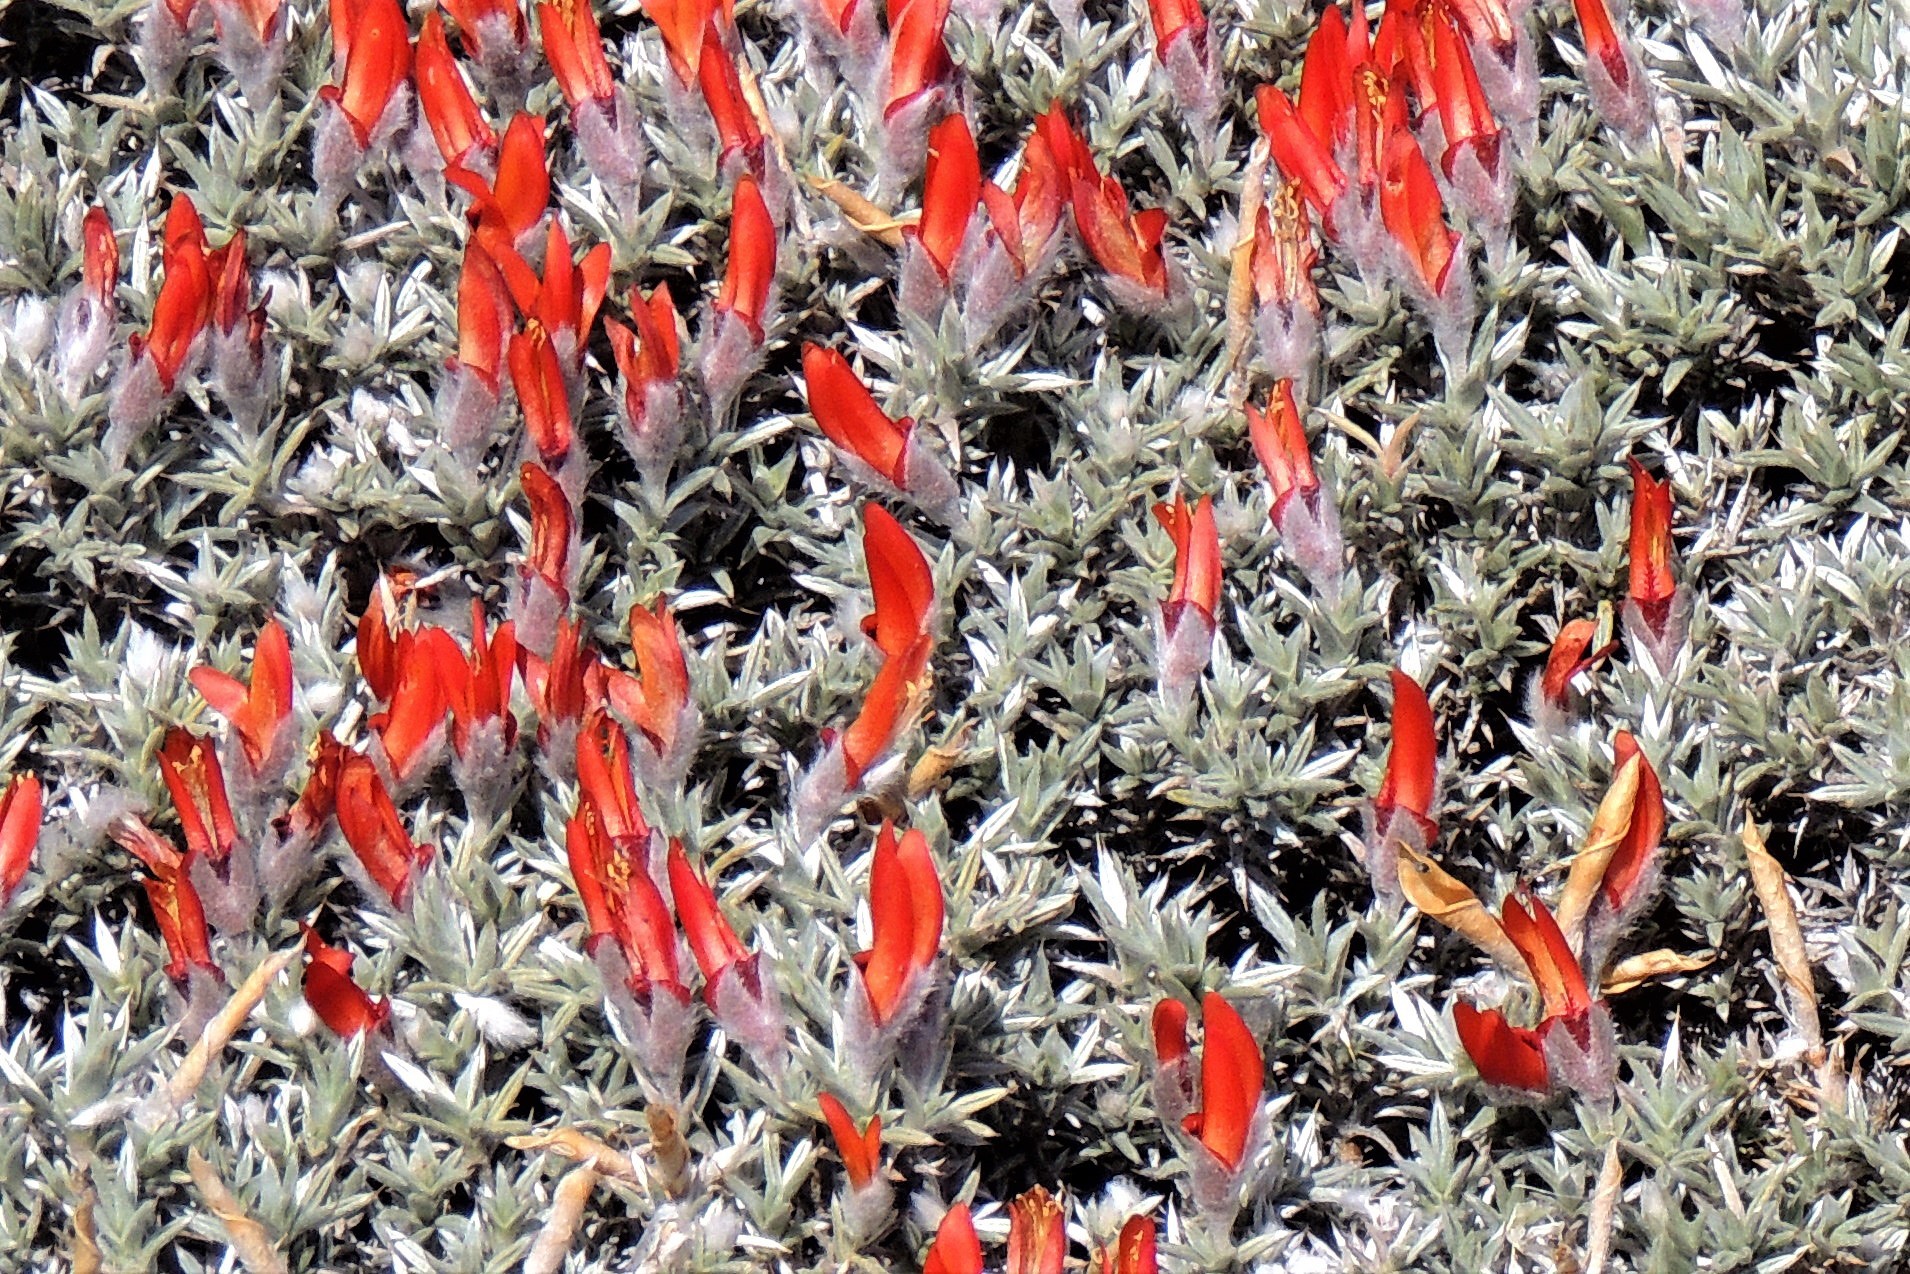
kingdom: Plantae
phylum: Tracheophyta
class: Magnoliopsida
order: Fabales
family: Fabaceae
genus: Anarthrophyllum
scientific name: Anarthrophyllum desideratum
